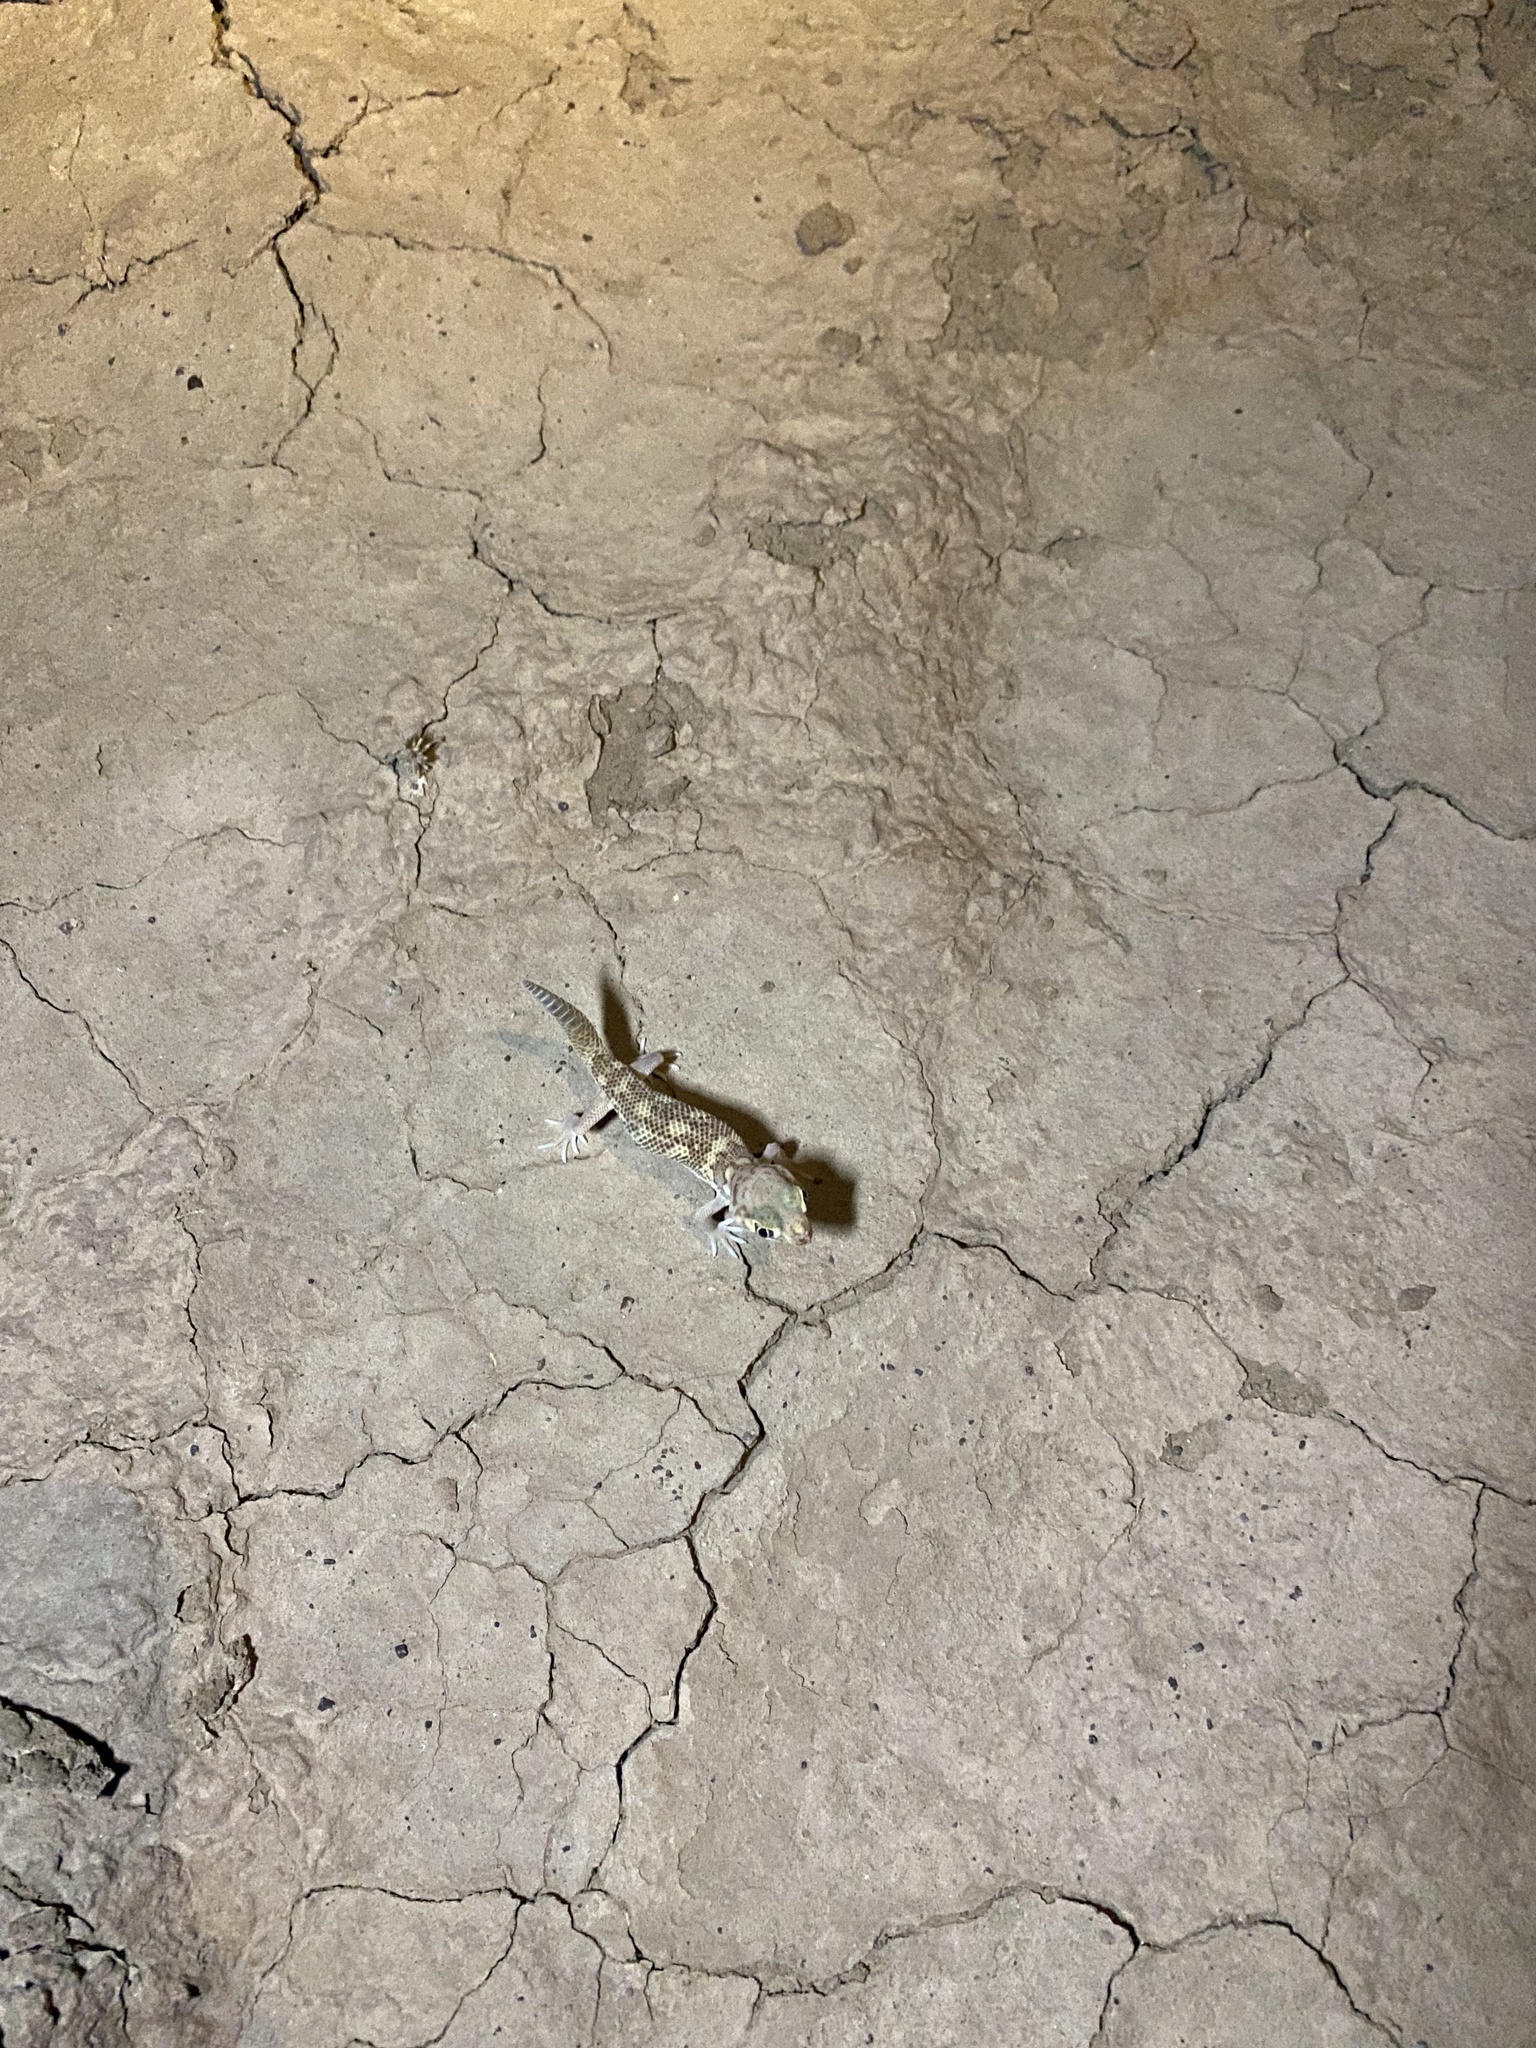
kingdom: Animalia
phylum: Chordata
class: Squamata
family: Sphaerodactylidae
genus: Teratoscincus
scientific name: Teratoscincus bedriagai
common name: Bedriaga's plate-tailed gecko
